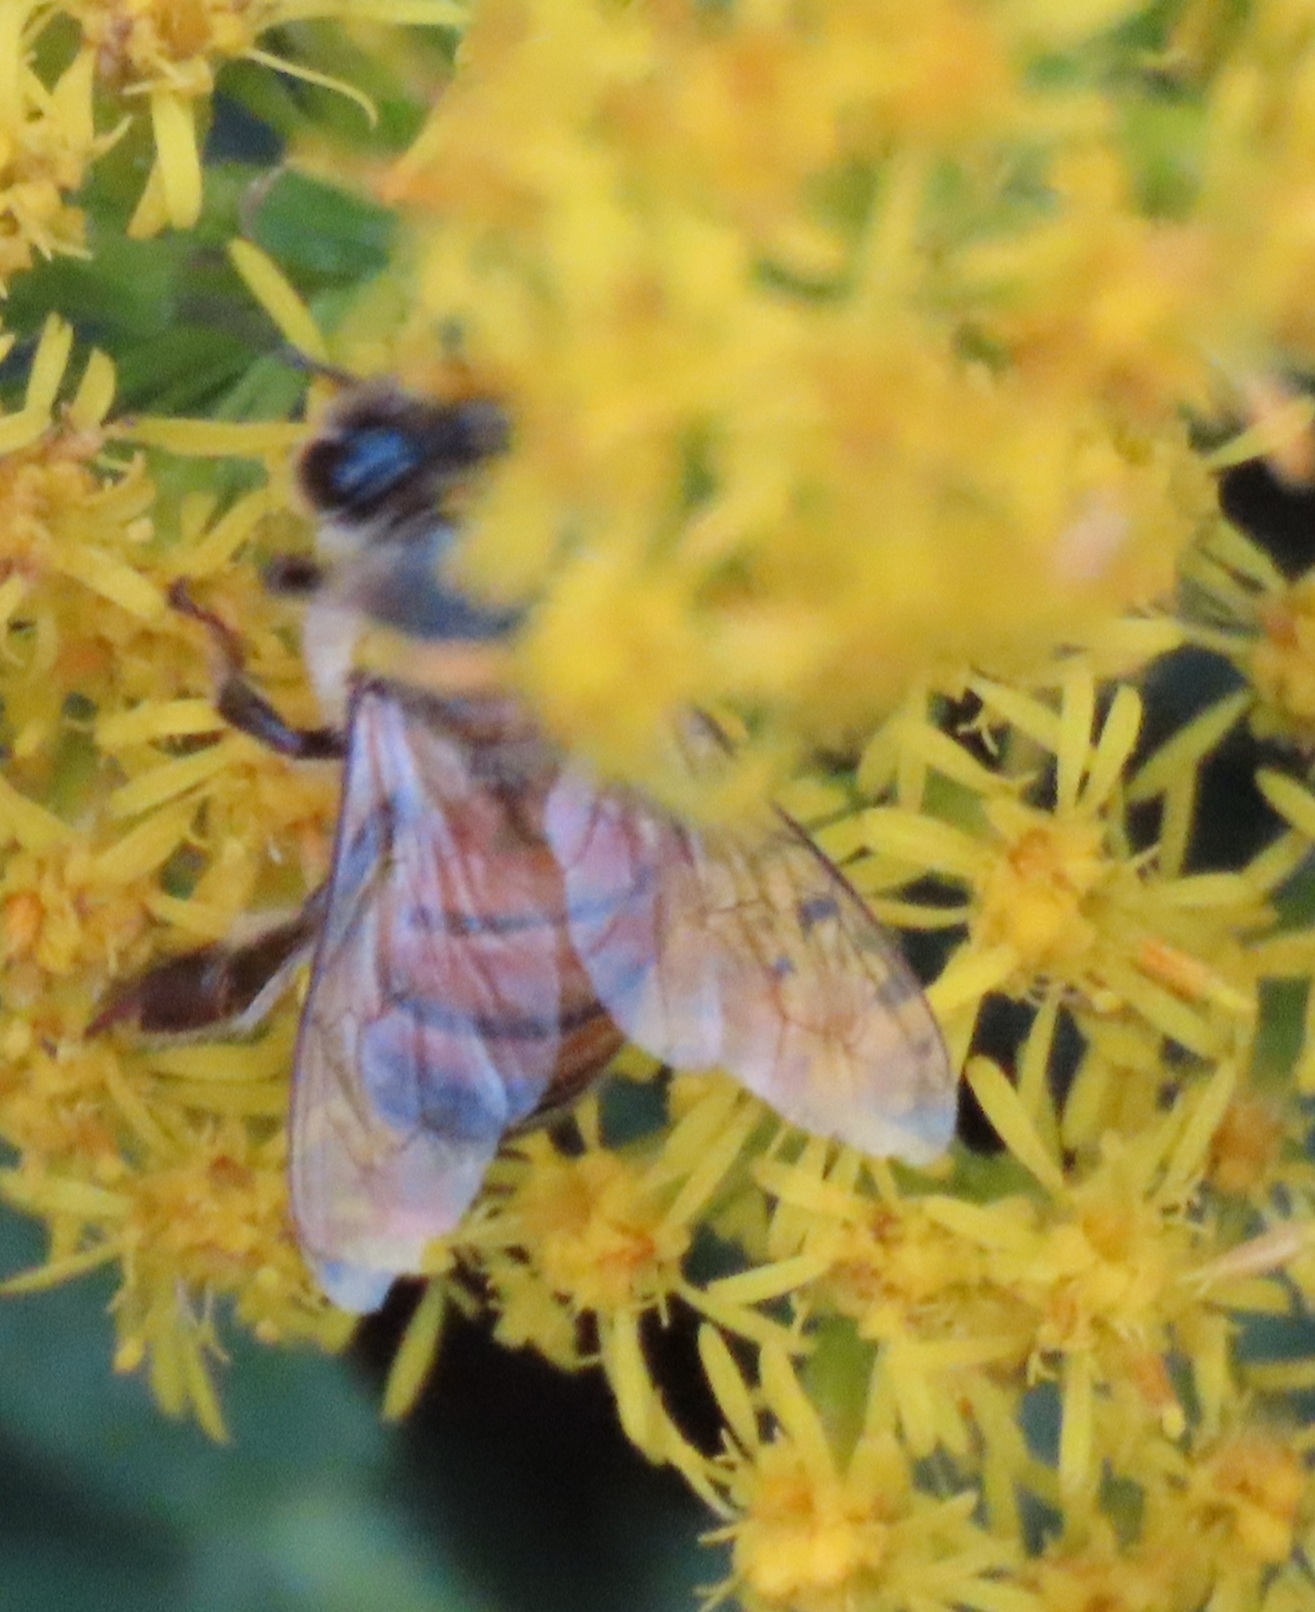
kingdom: Animalia
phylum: Arthropoda
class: Insecta
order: Hymenoptera
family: Apidae
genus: Apis
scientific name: Apis mellifera
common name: Honey bee
